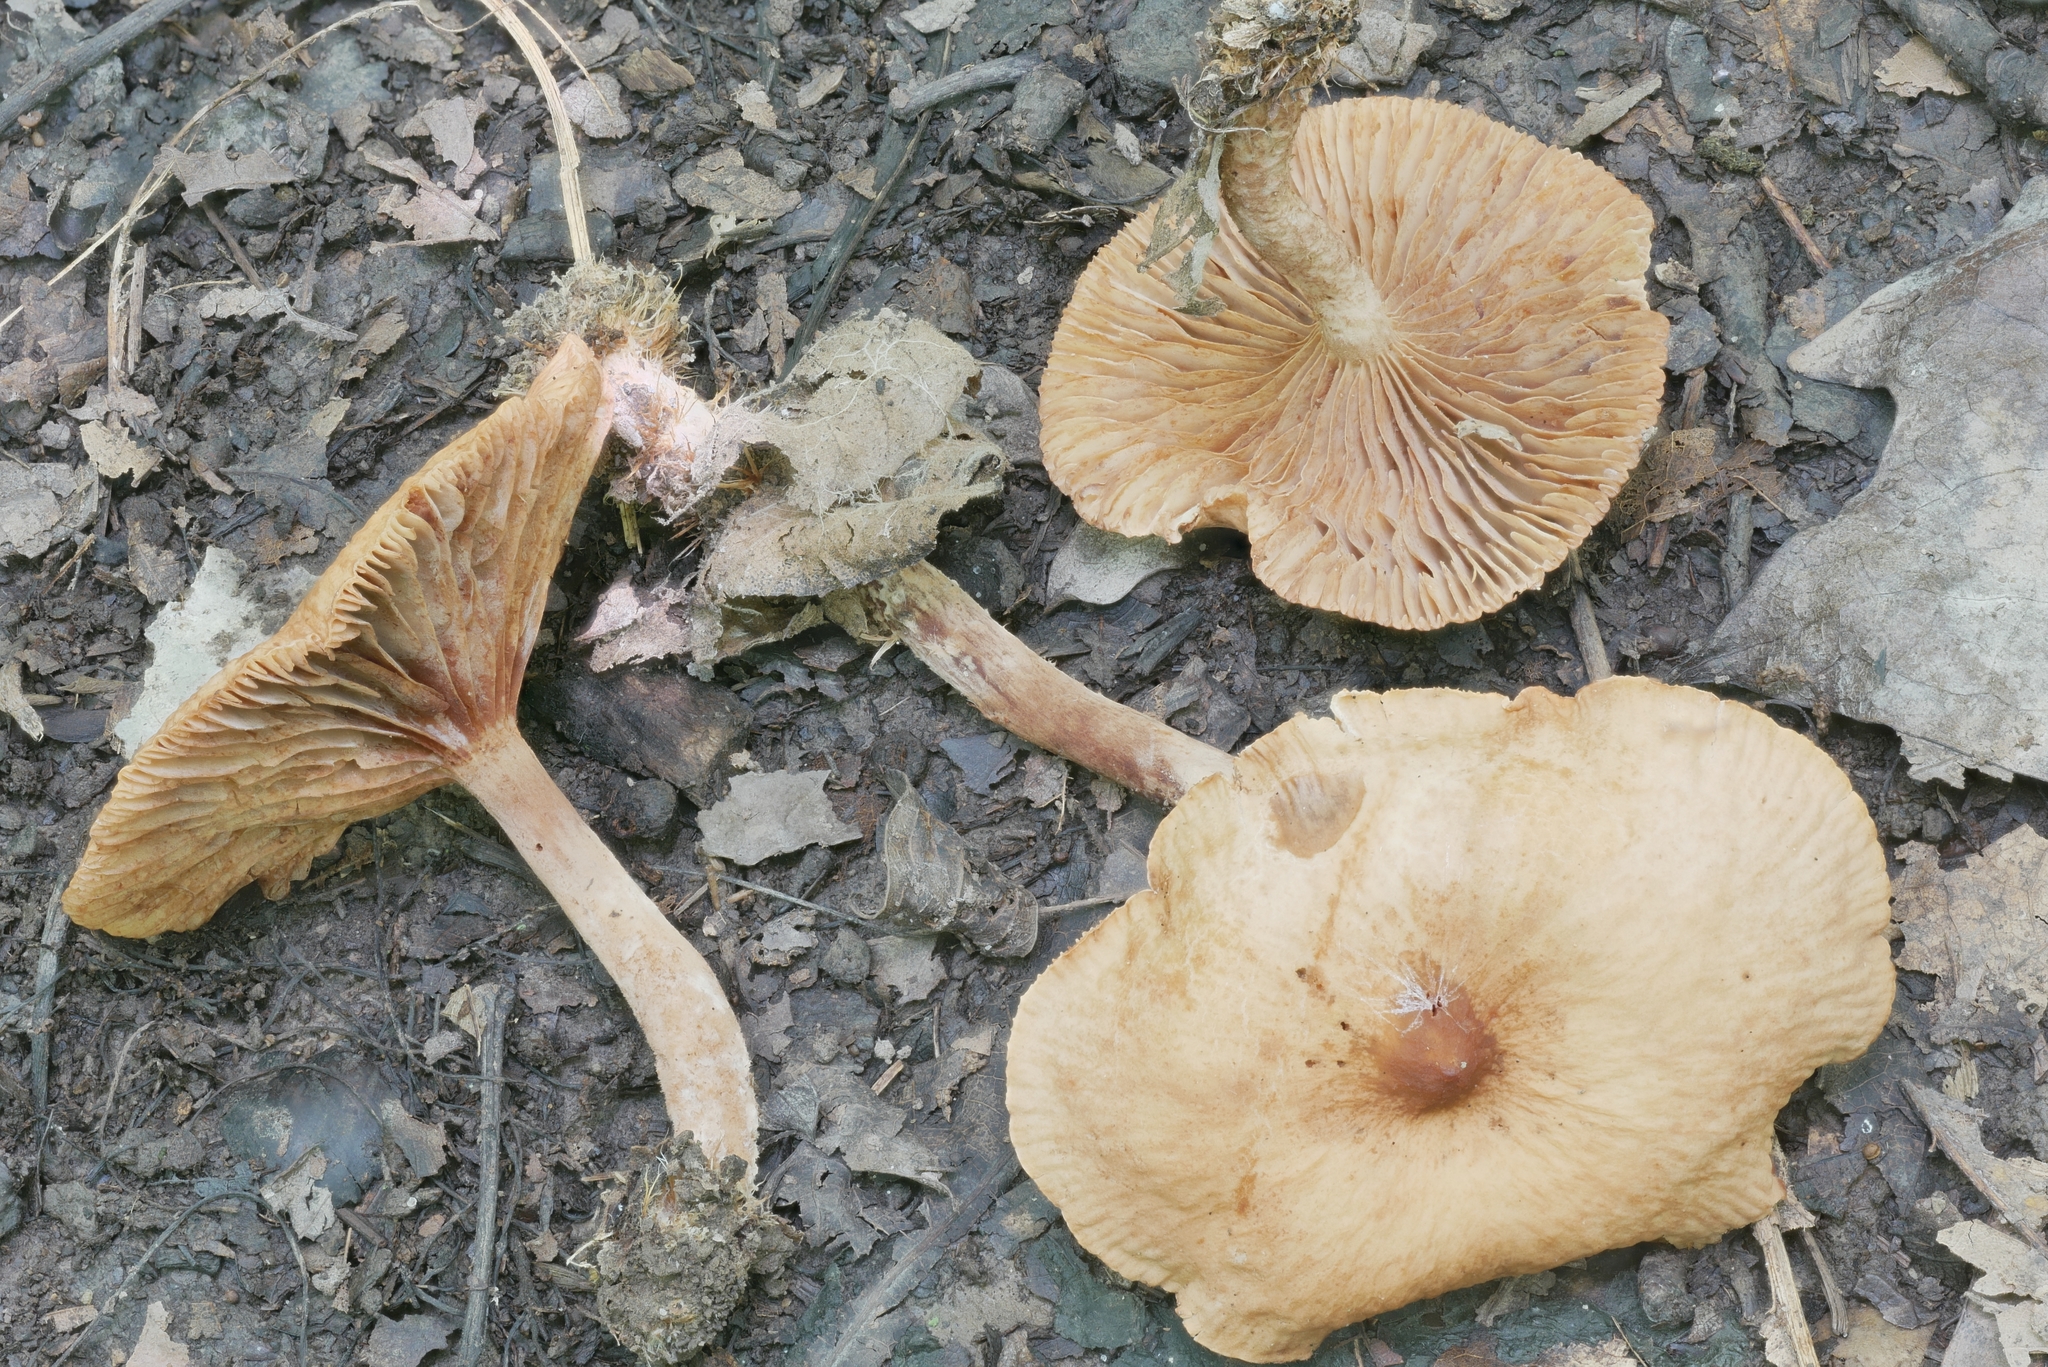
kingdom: Fungi
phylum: Basidiomycota
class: Agaricomycetes
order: Russulales
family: Russulaceae
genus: Lactarius
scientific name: Lactarius subserifluus
